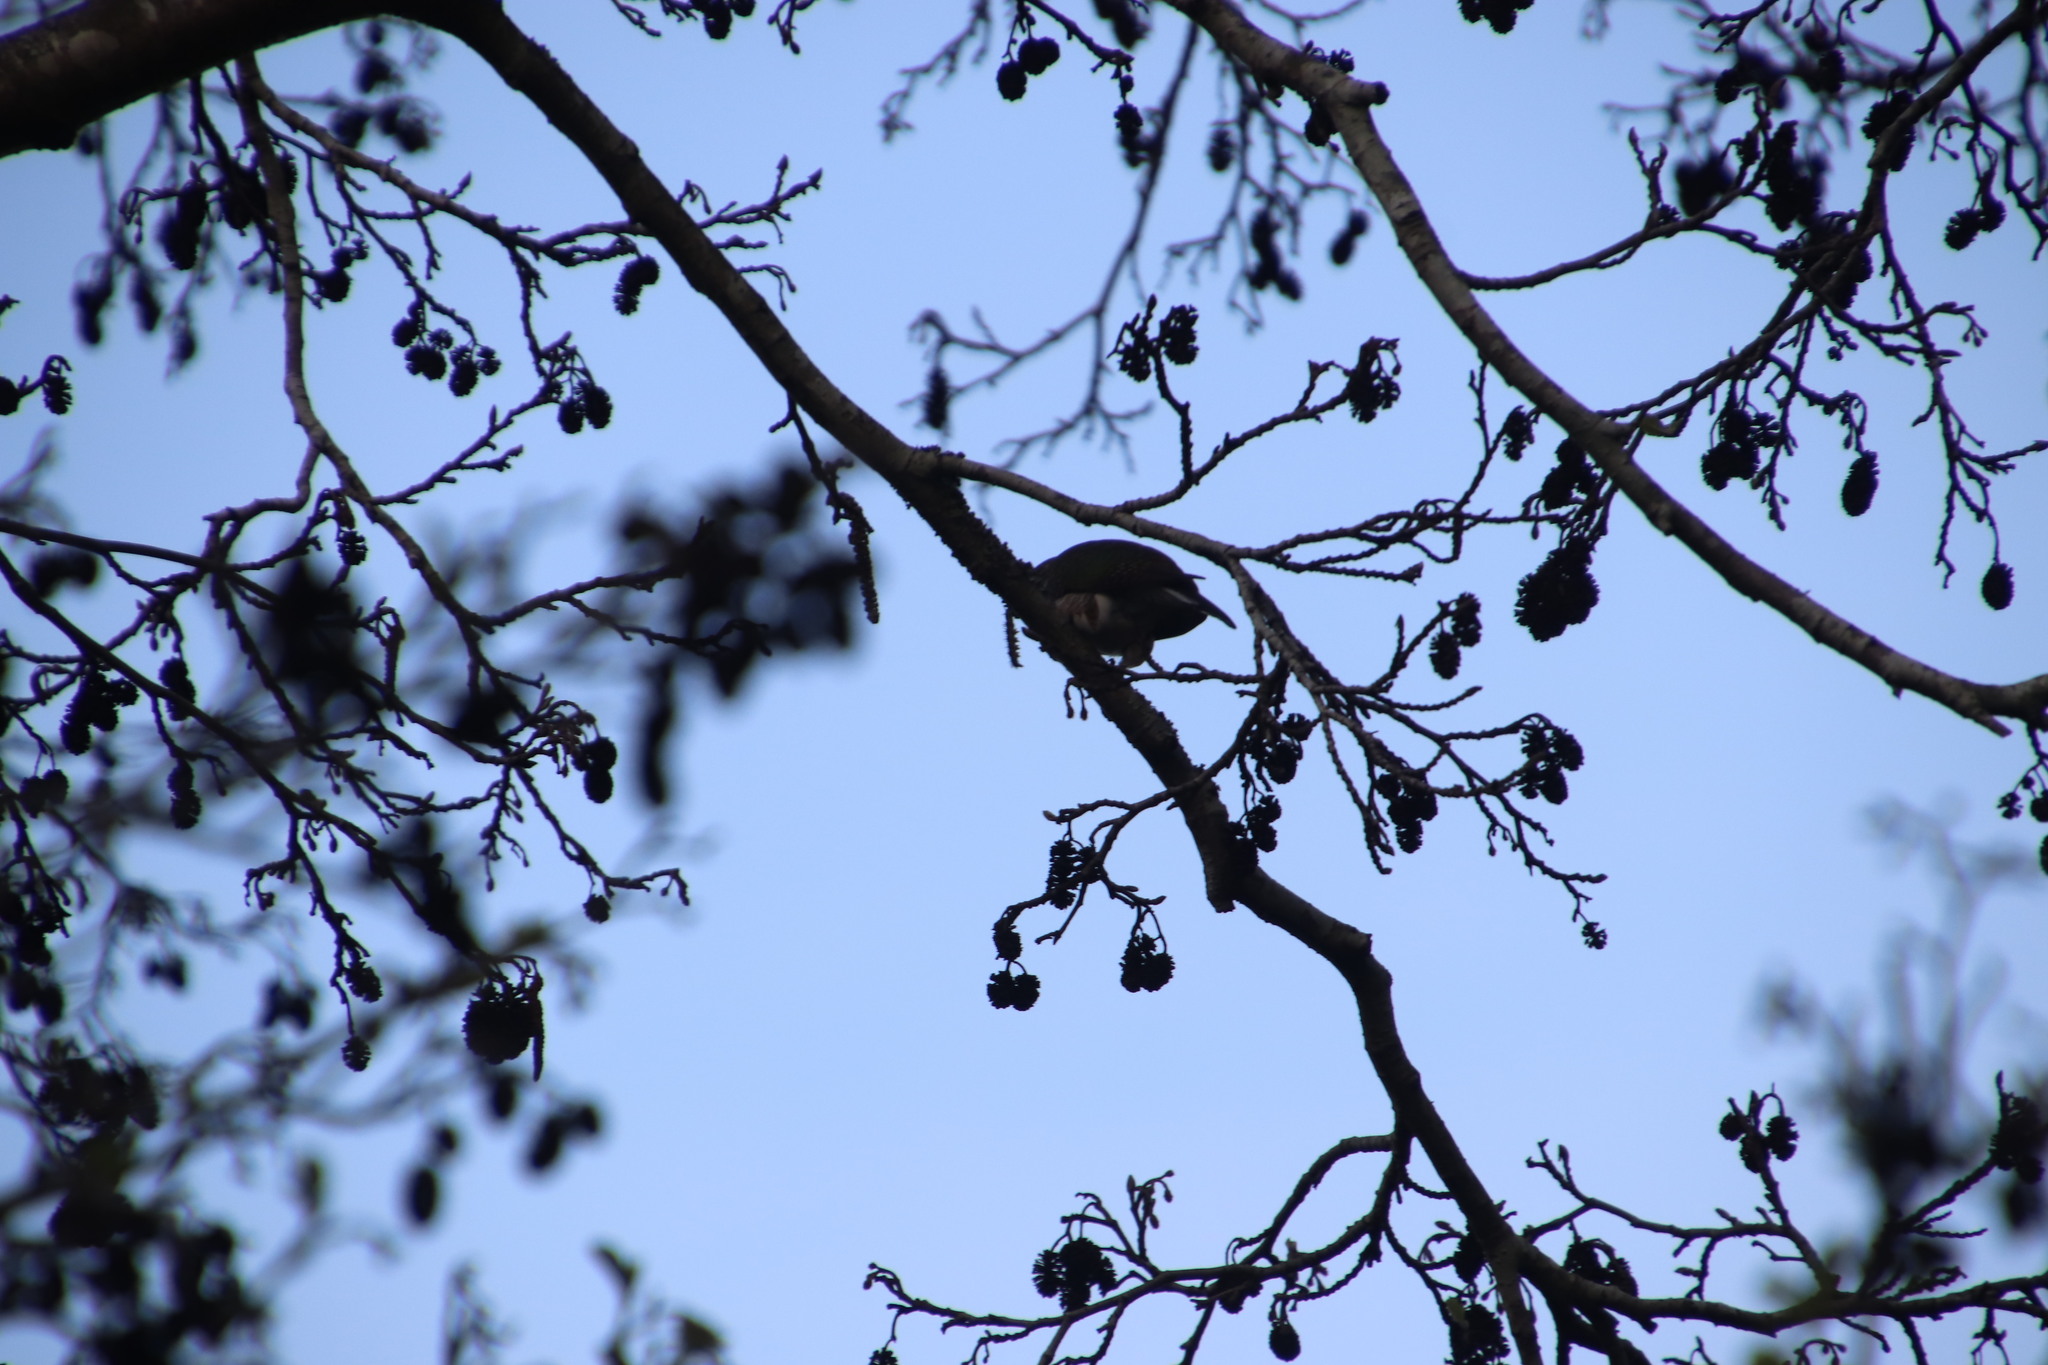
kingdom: Animalia
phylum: Chordata
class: Aves
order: Cuculiformes
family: Cuculidae
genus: Chrysococcyx
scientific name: Chrysococcyx klaas
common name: Klaas's cuckoo
